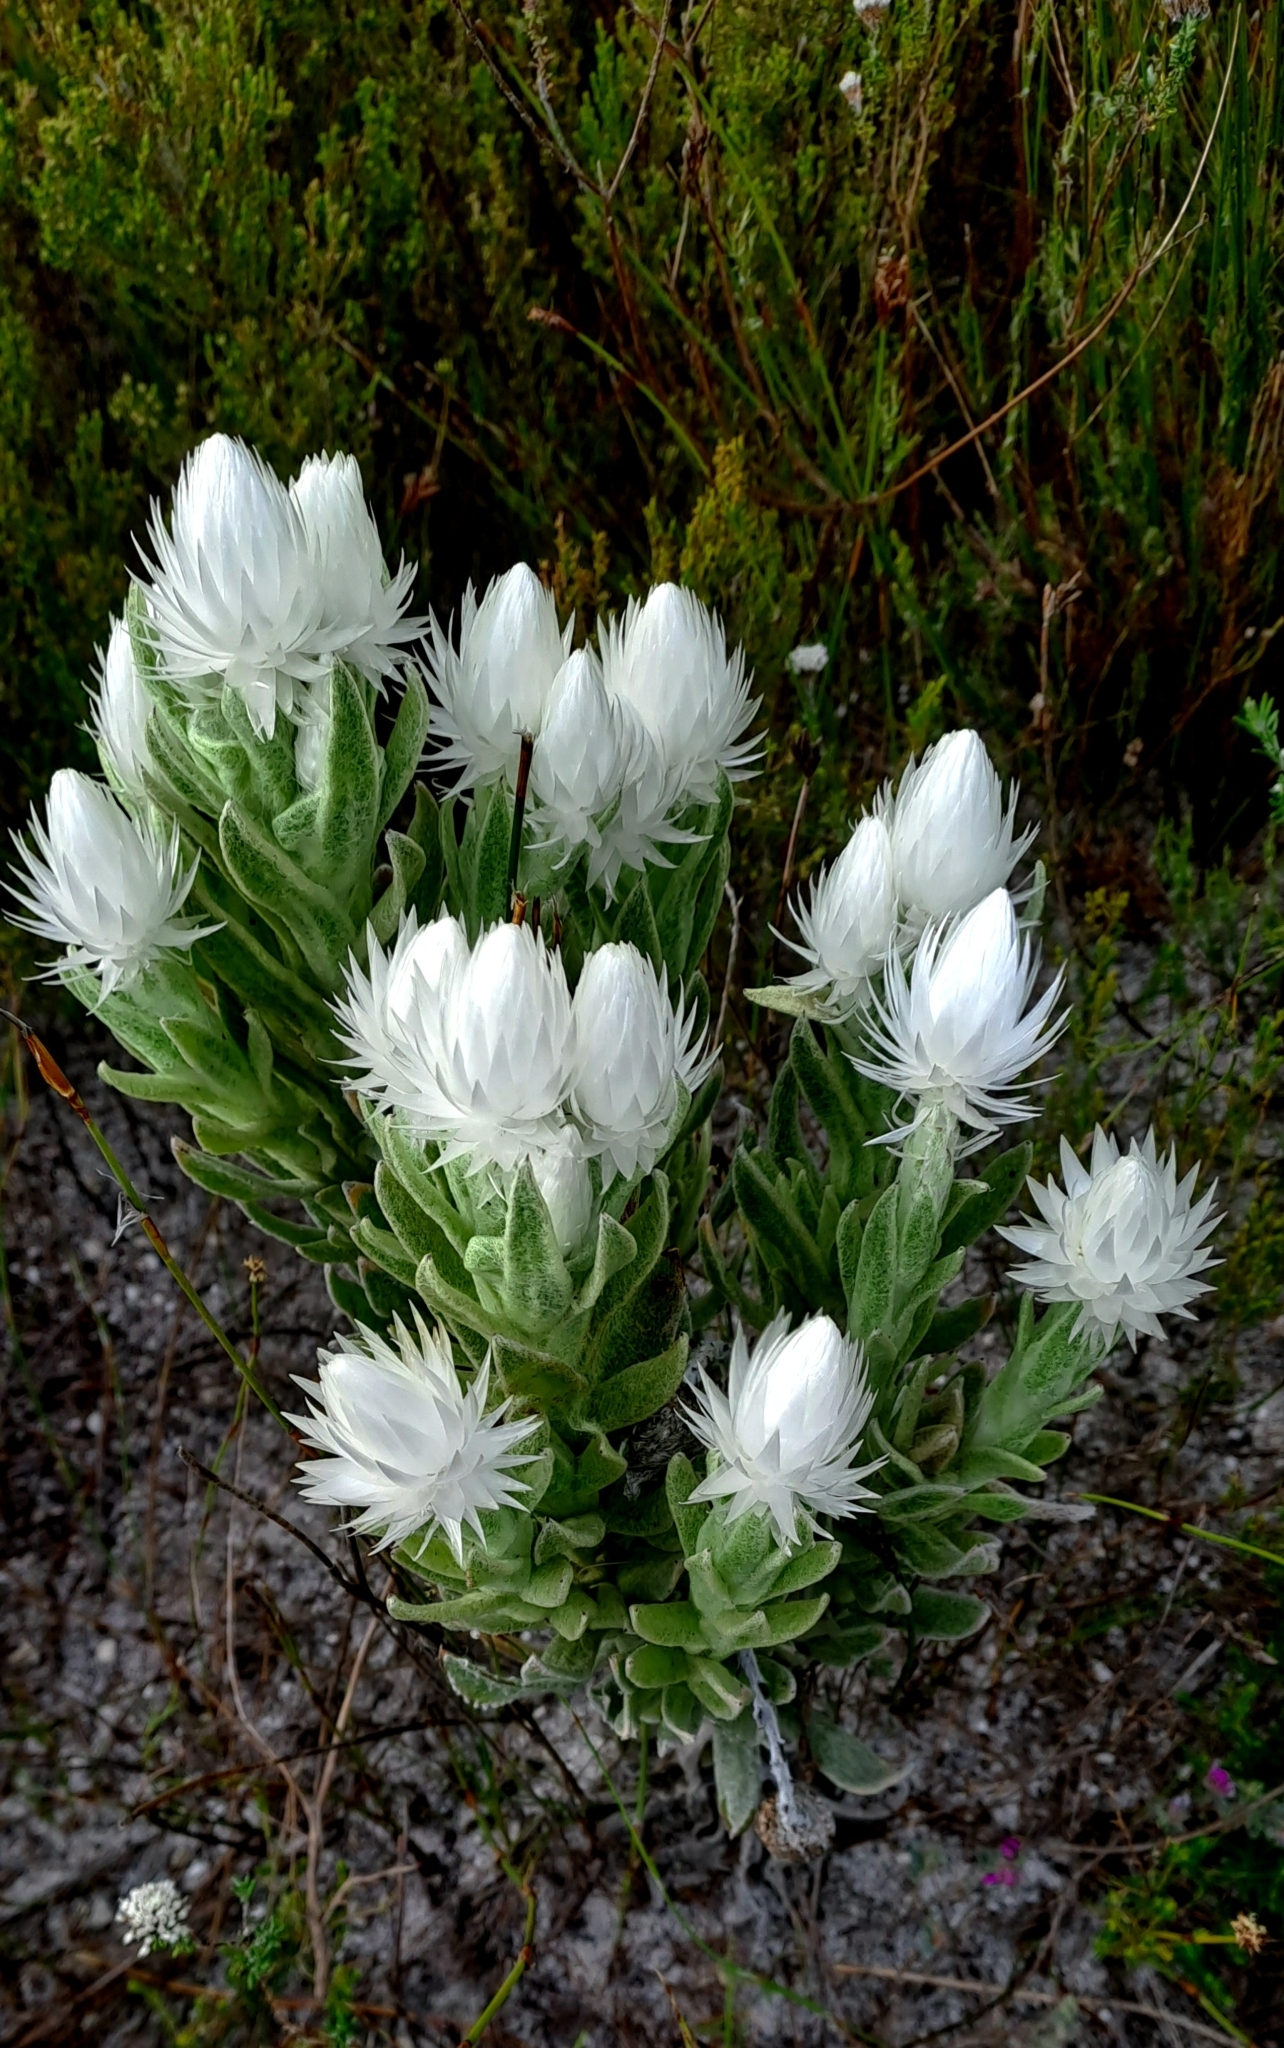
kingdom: Plantae
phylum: Tracheophyta
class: Magnoliopsida
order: Asterales
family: Asteraceae
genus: Syncarpha
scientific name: Syncarpha vestita
